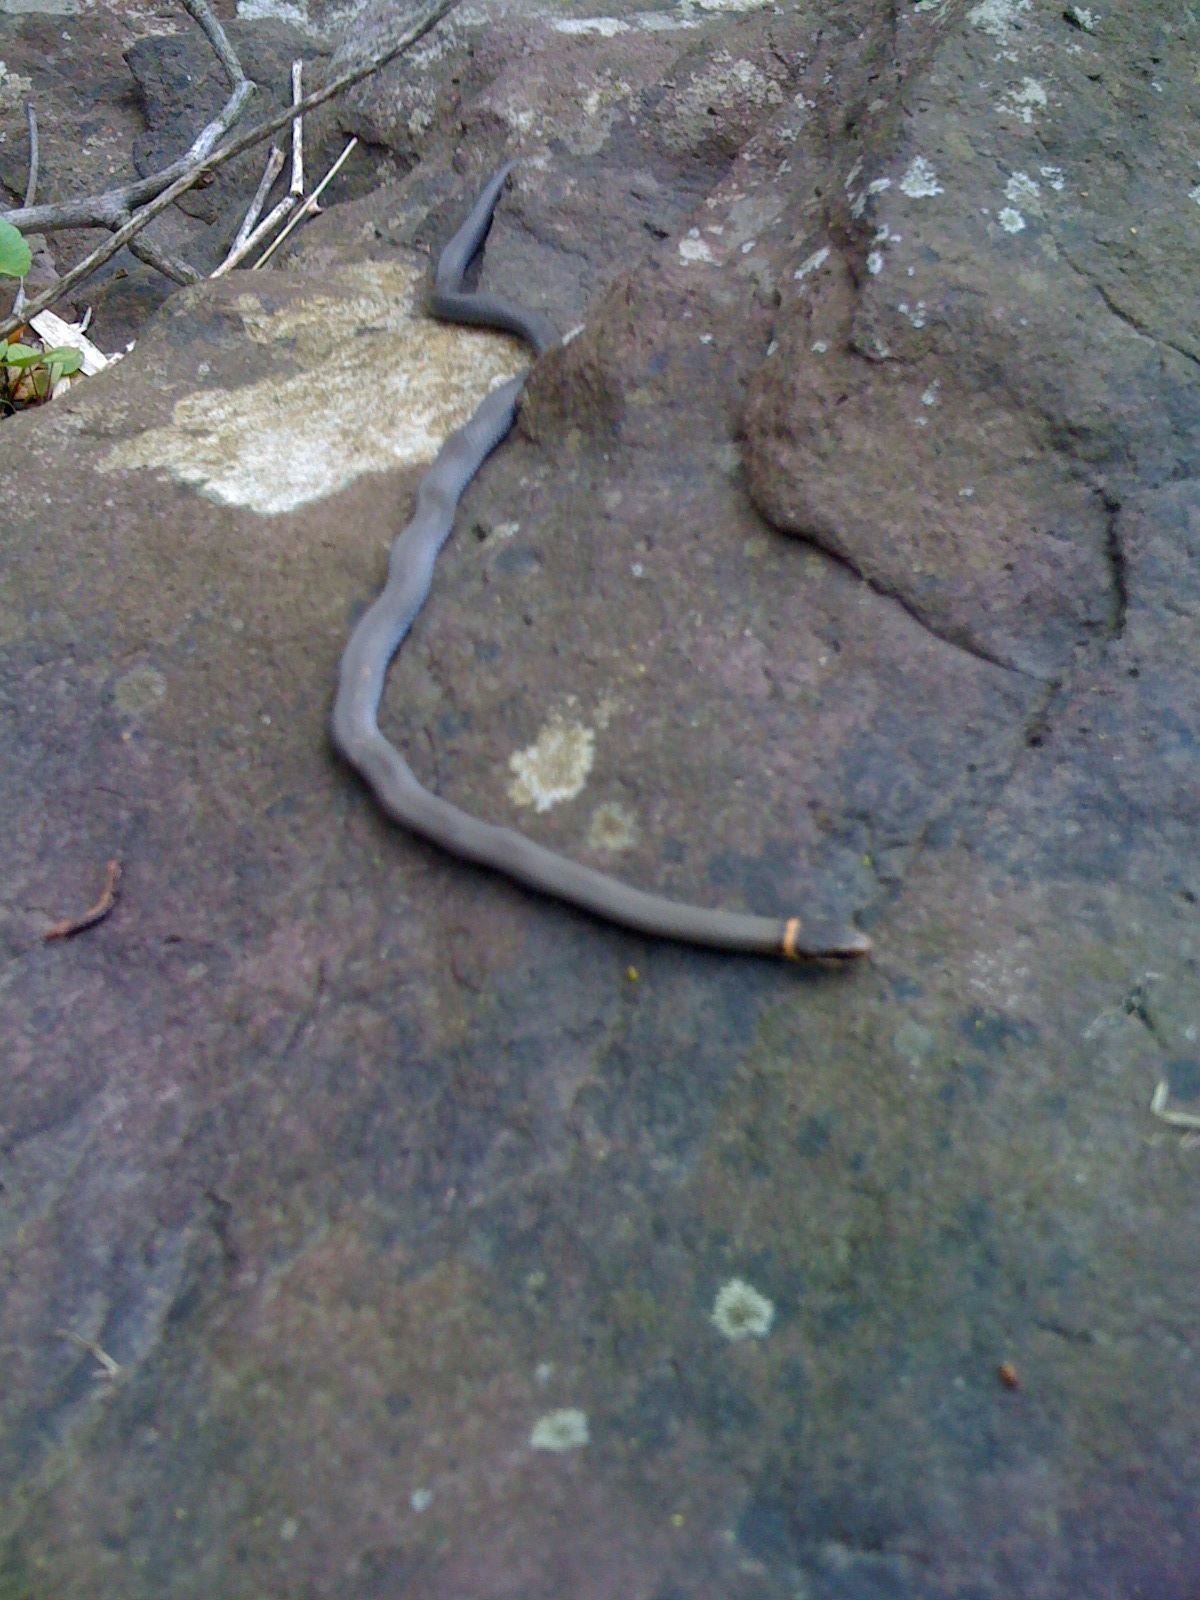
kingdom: Animalia
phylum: Chordata
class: Squamata
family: Colubridae
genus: Diadophis
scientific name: Diadophis punctatus
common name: Ringneck snake
